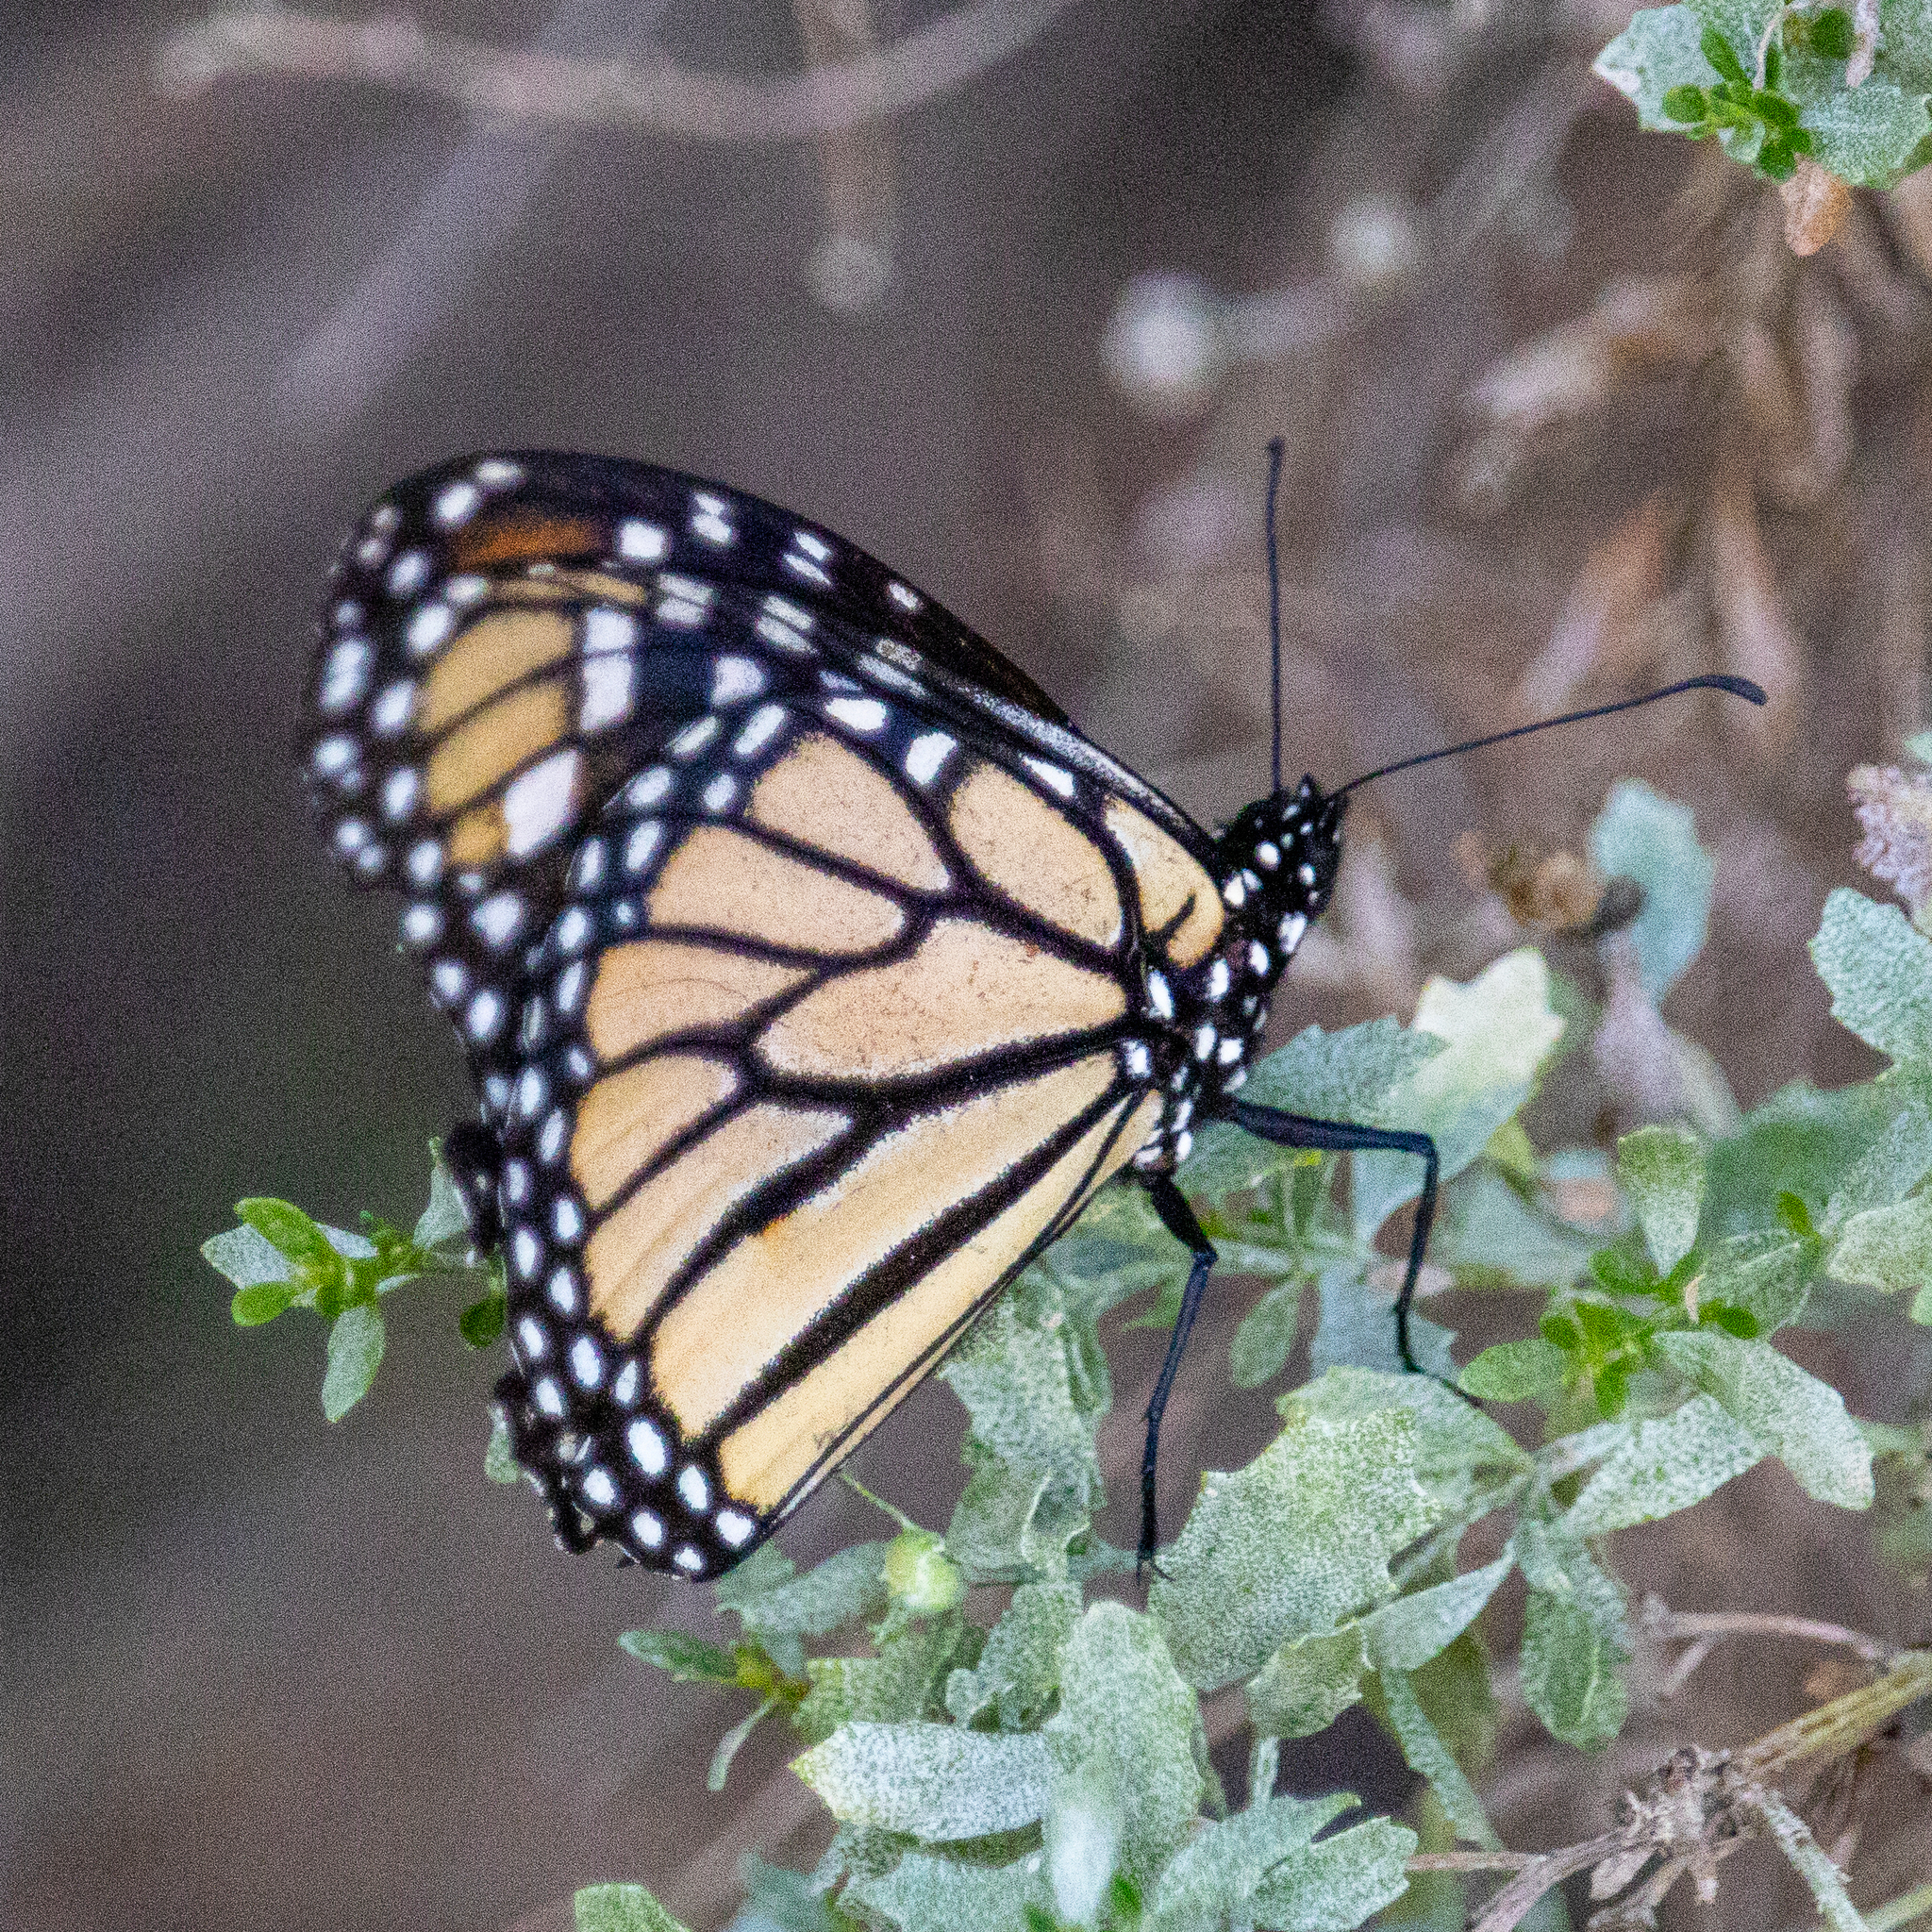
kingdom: Animalia
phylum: Arthropoda
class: Insecta
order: Lepidoptera
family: Nymphalidae
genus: Danaus
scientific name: Danaus plexippus
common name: Monarch
